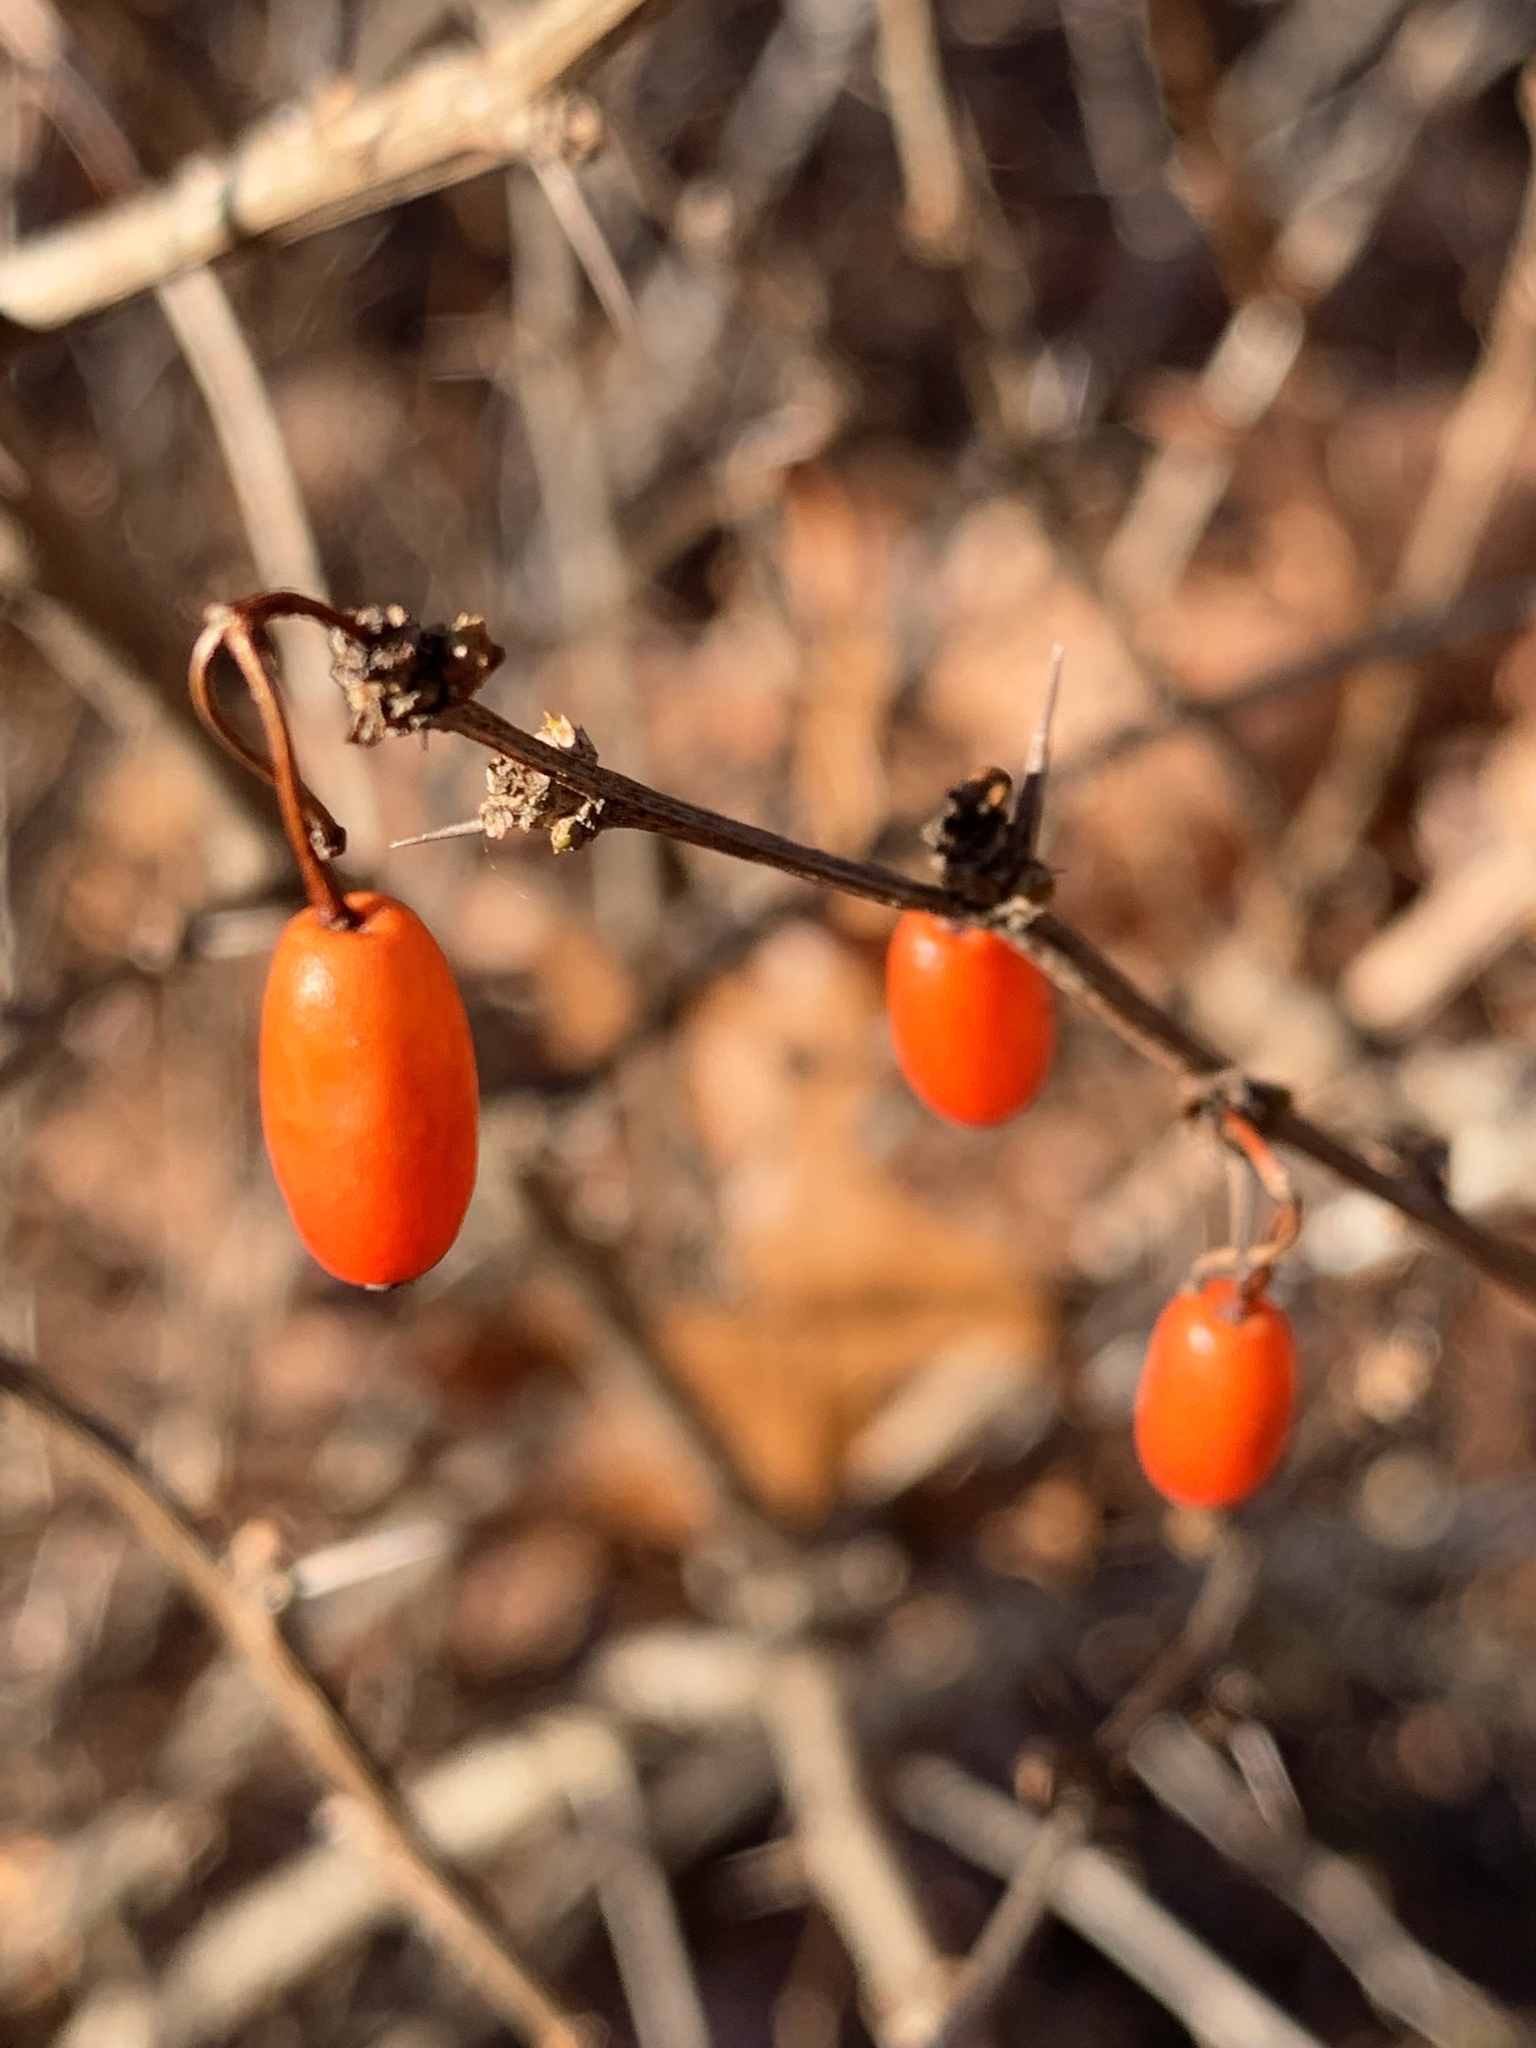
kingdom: Plantae
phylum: Tracheophyta
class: Magnoliopsida
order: Ranunculales
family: Berberidaceae
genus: Berberis
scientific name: Berberis thunbergii
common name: Japanese barberry
